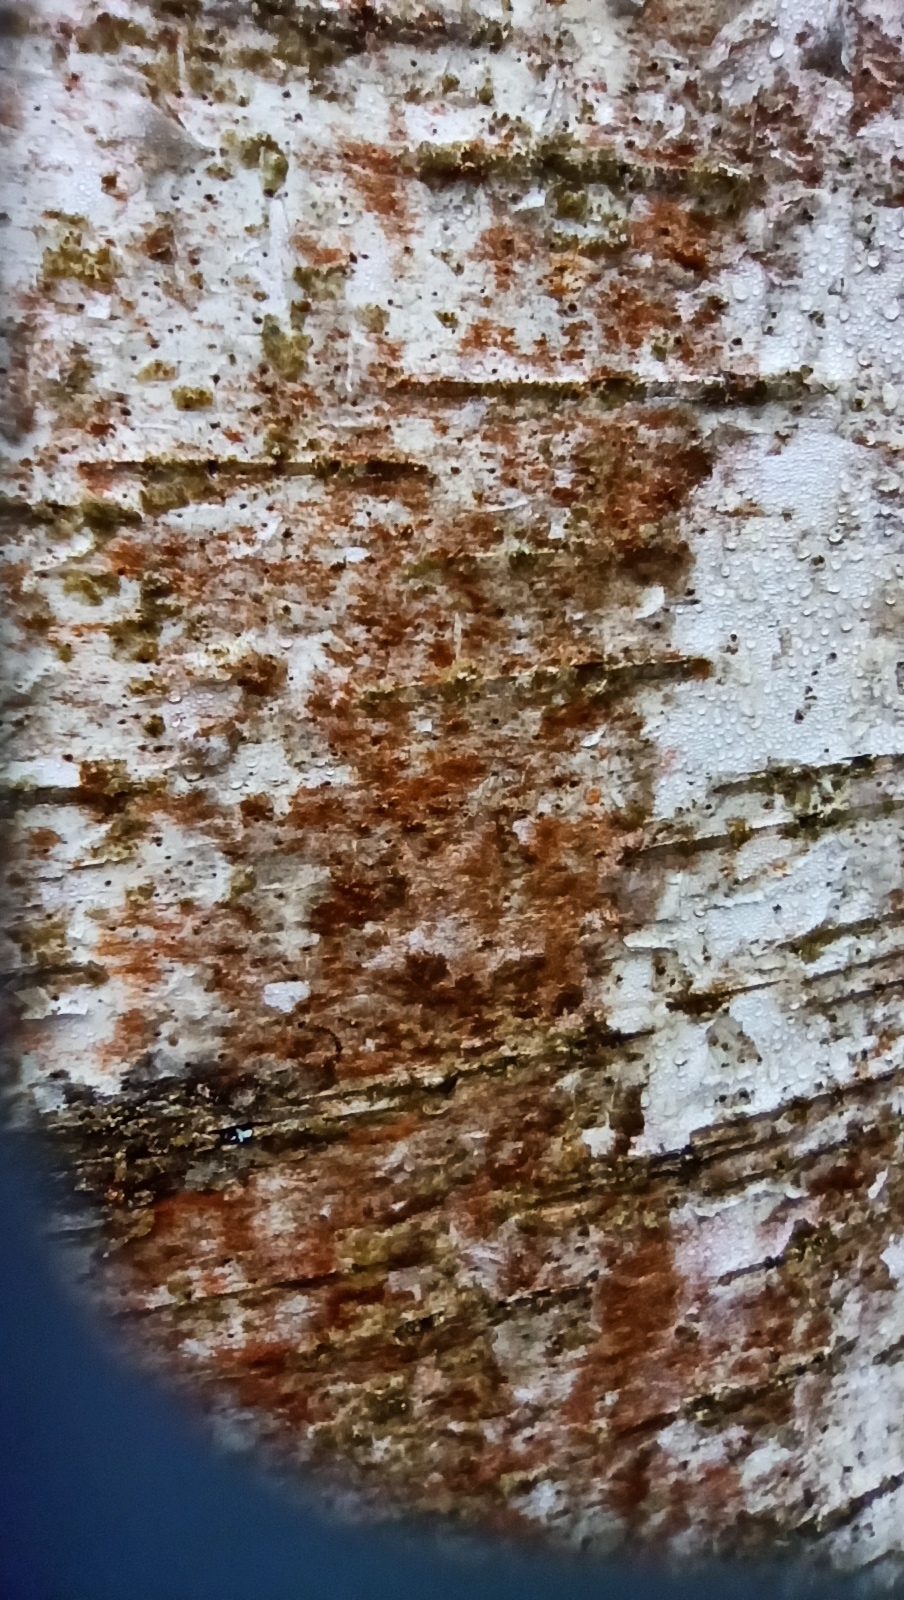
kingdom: Plantae
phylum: Chlorophyta
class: Ulvophyceae
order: Trentepohliales
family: Trentepohliaceae
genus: Trentepohlia
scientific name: Trentepohlia aurea
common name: Orange rock hair
